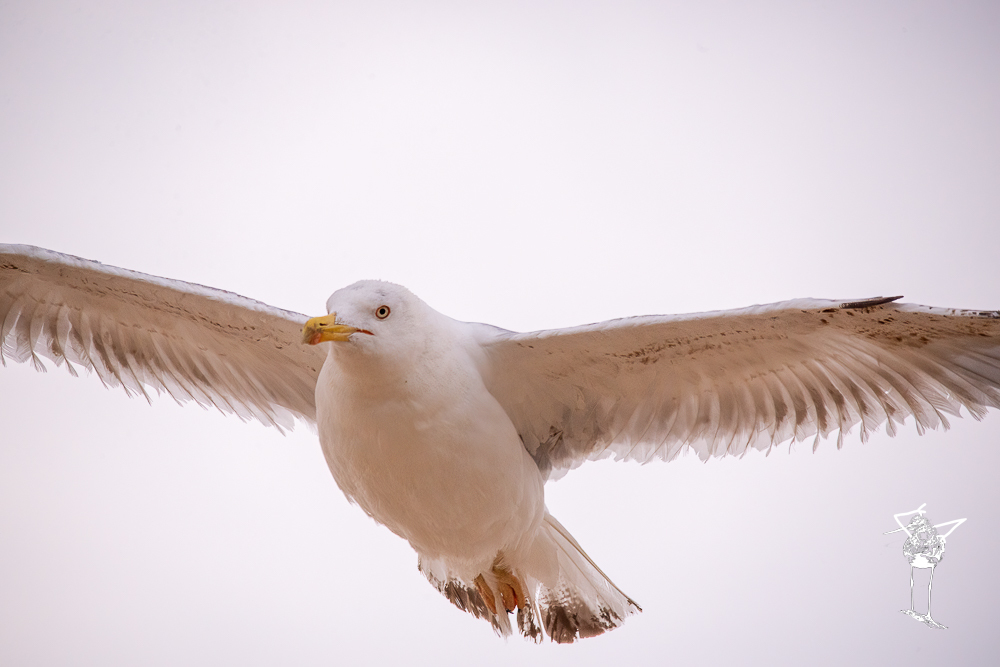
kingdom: Animalia
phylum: Chordata
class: Aves
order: Charadriiformes
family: Laridae
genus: Larus
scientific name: Larus michahellis
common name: Yellow-legged gull
